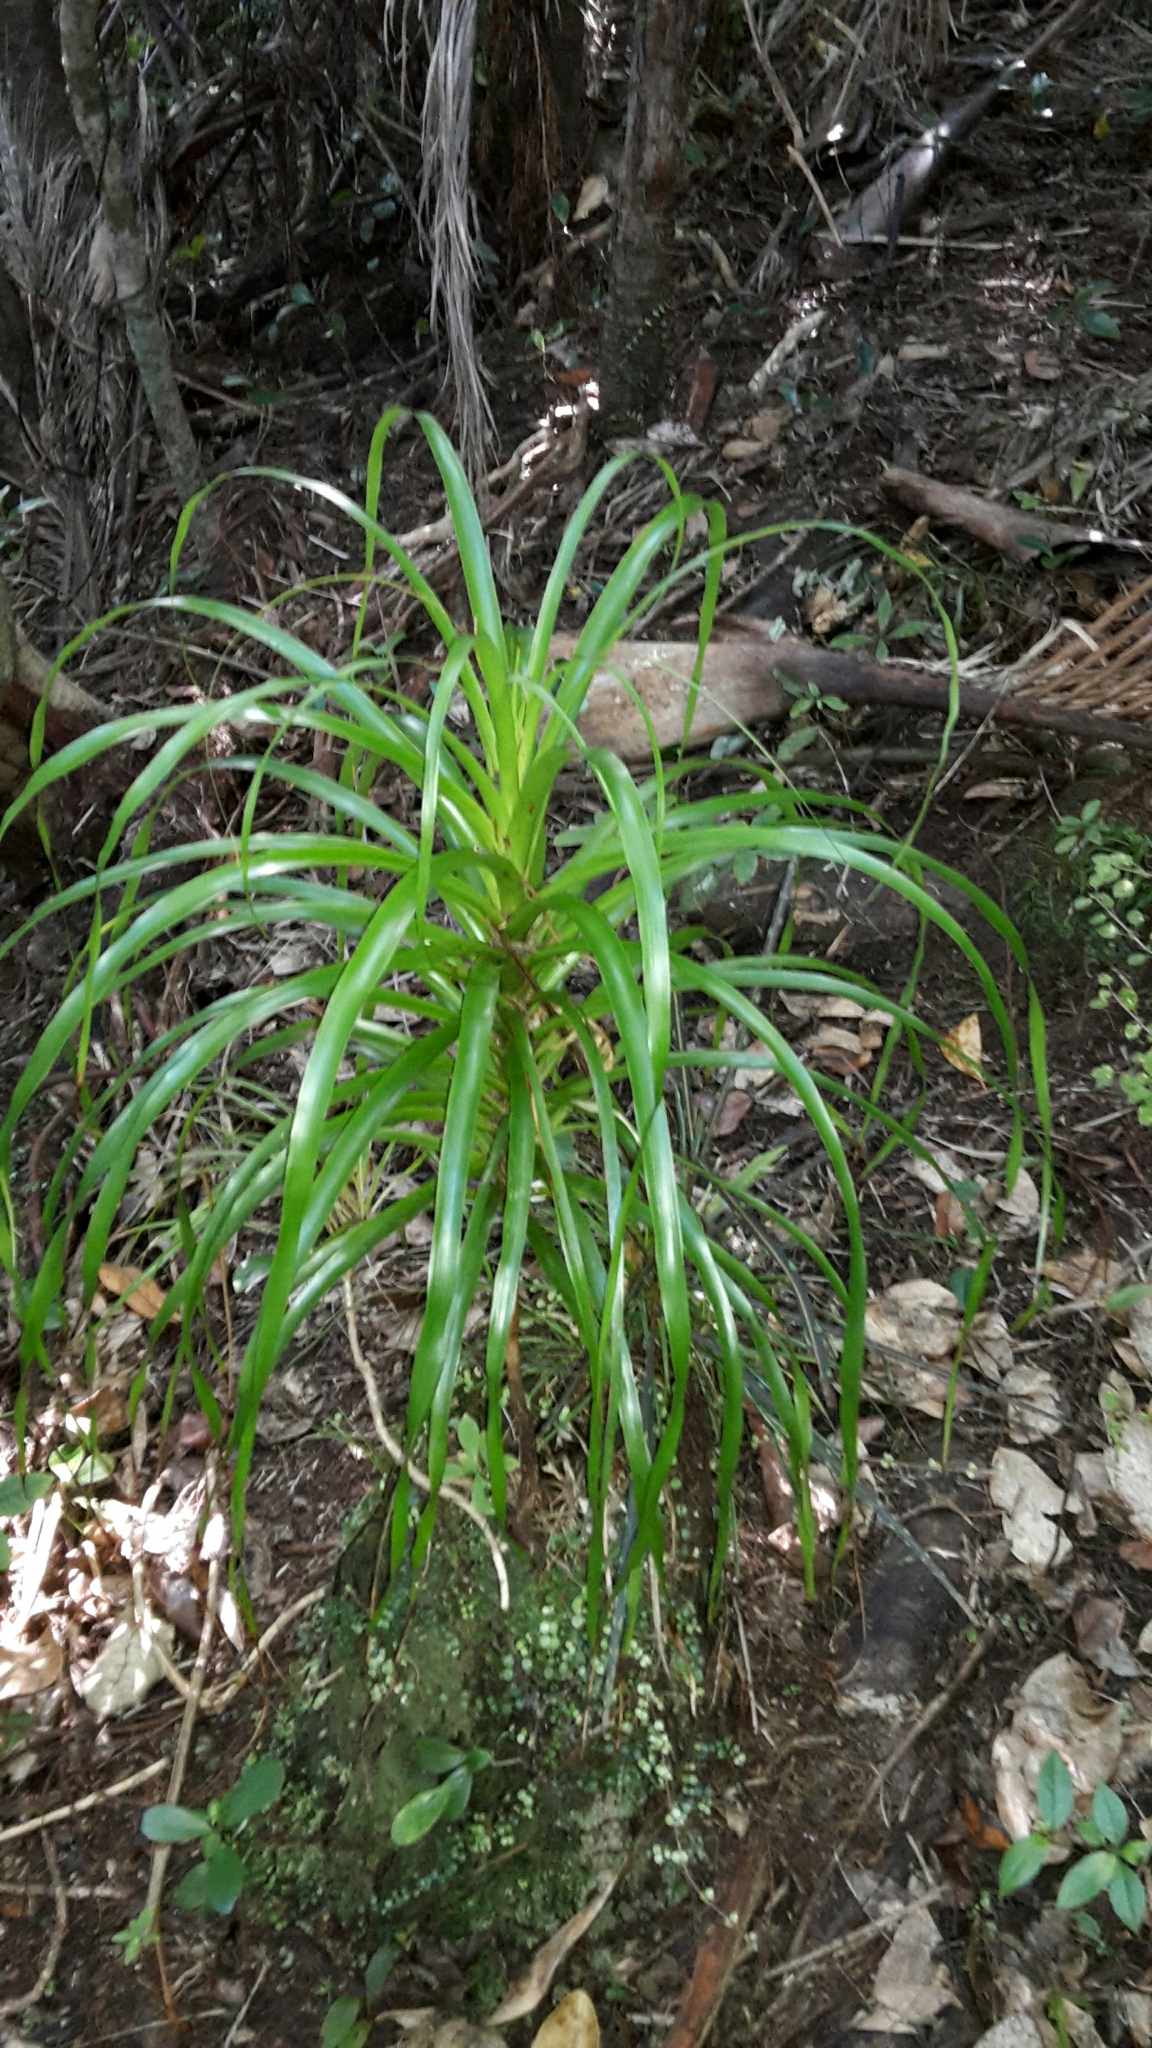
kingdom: Plantae
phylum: Tracheophyta
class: Magnoliopsida
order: Ericales
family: Ericaceae
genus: Dracophyllum
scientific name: Dracophyllum latifolium
